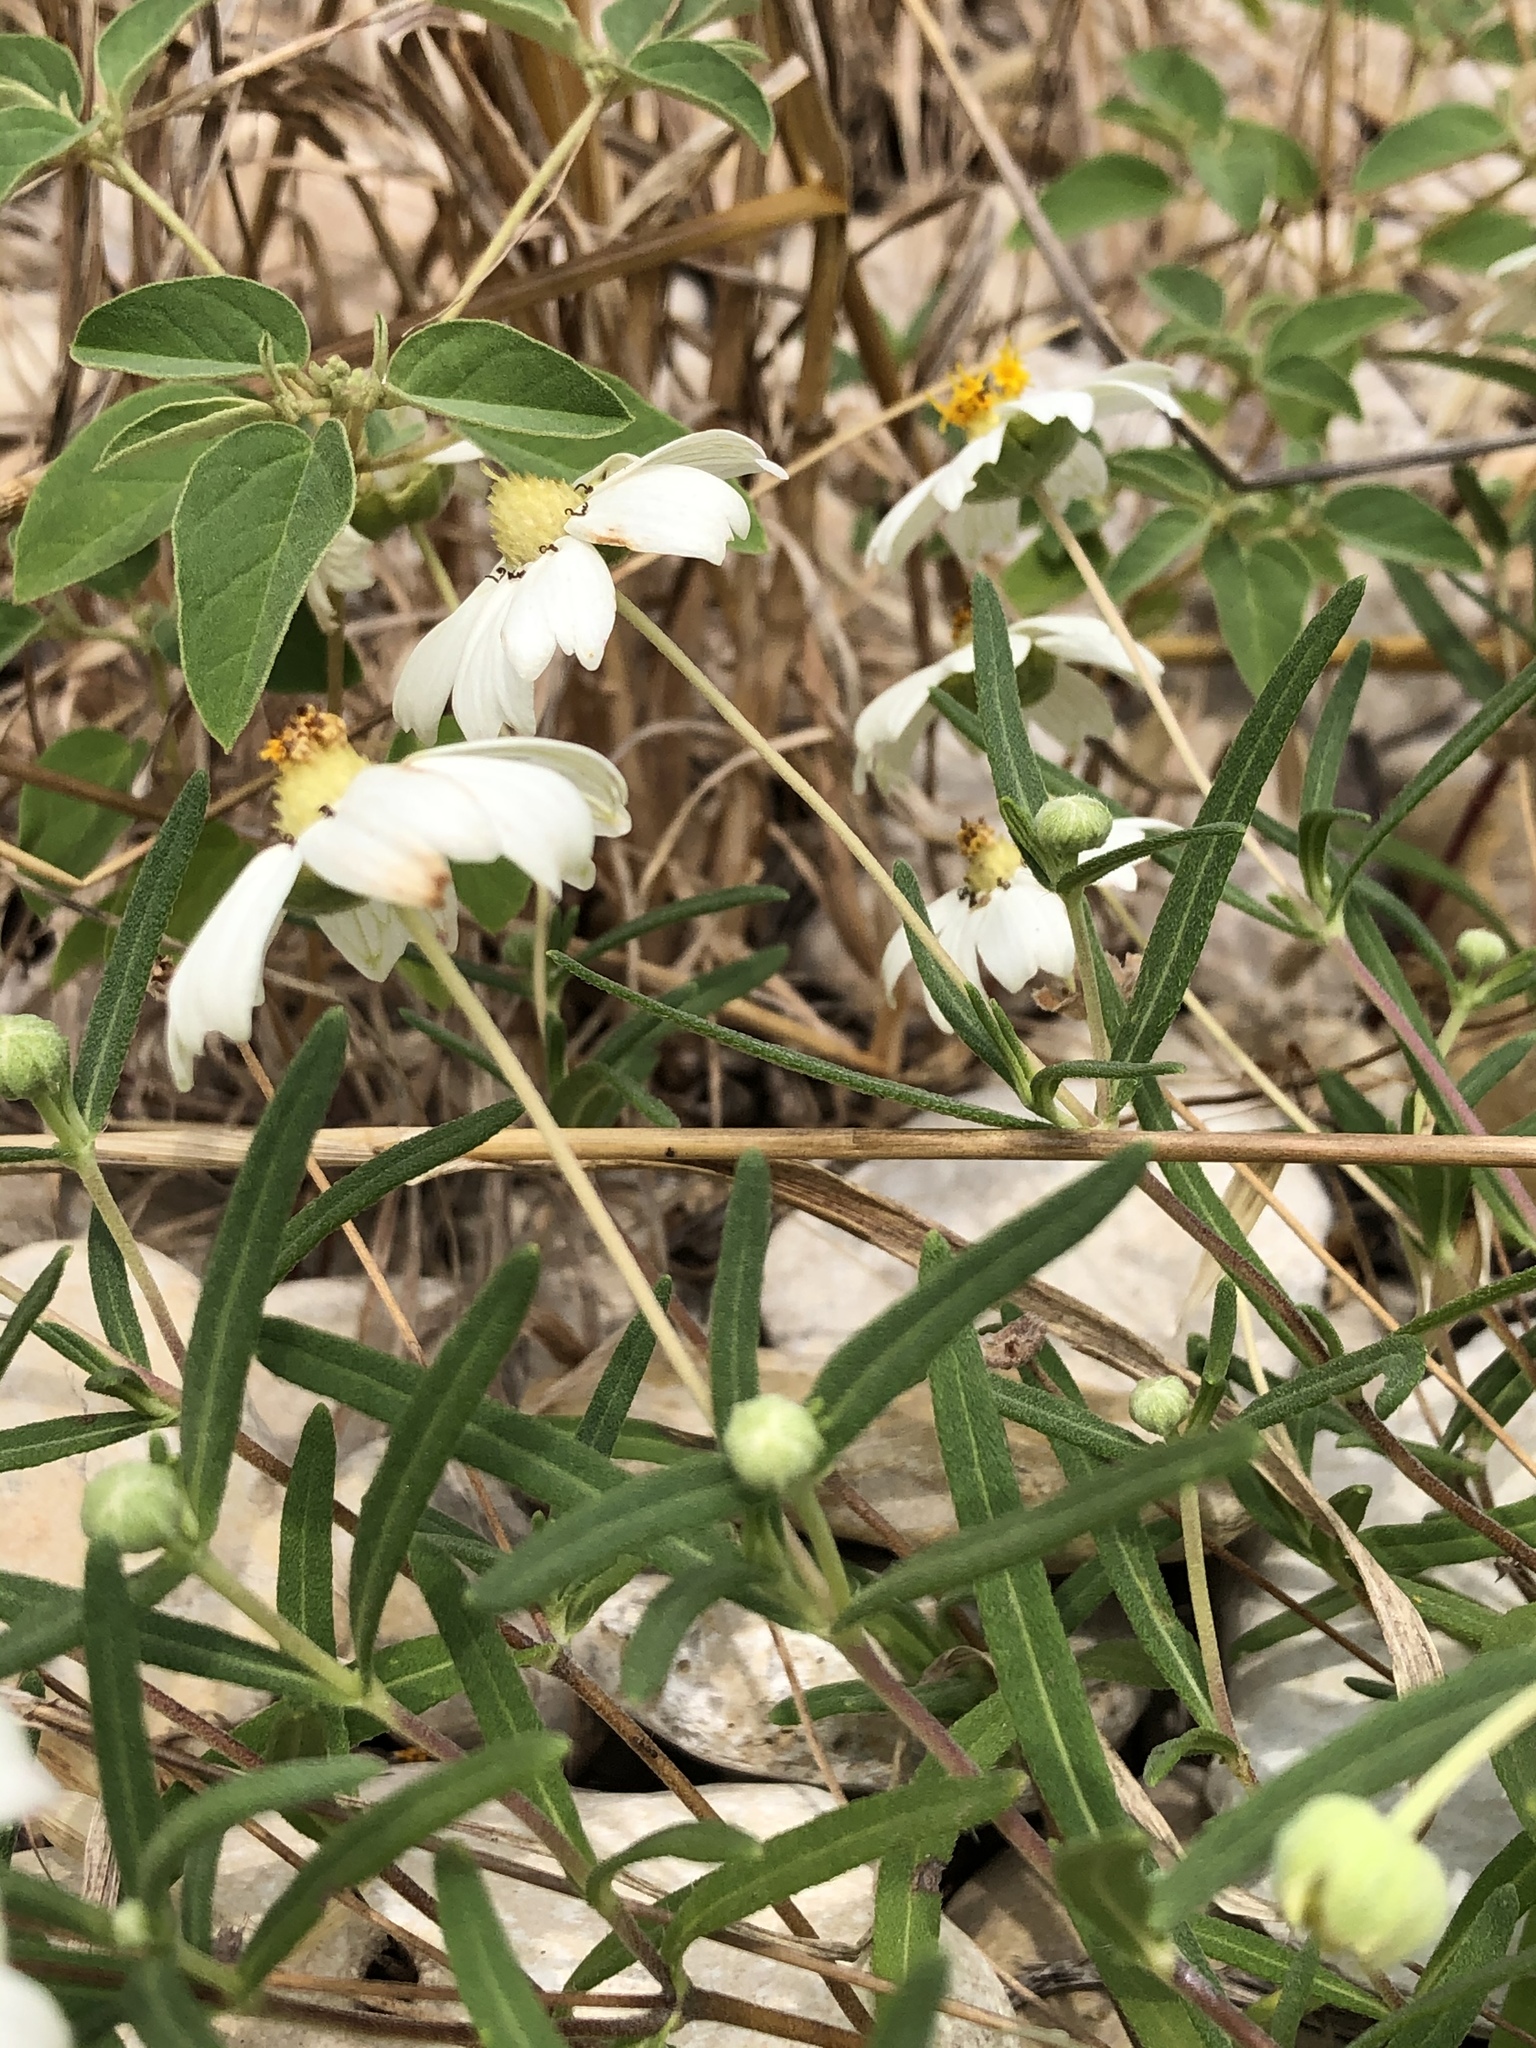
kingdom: Plantae
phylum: Tracheophyta
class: Magnoliopsida
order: Asterales
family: Asteraceae
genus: Melampodium
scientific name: Melampodium leucanthum
